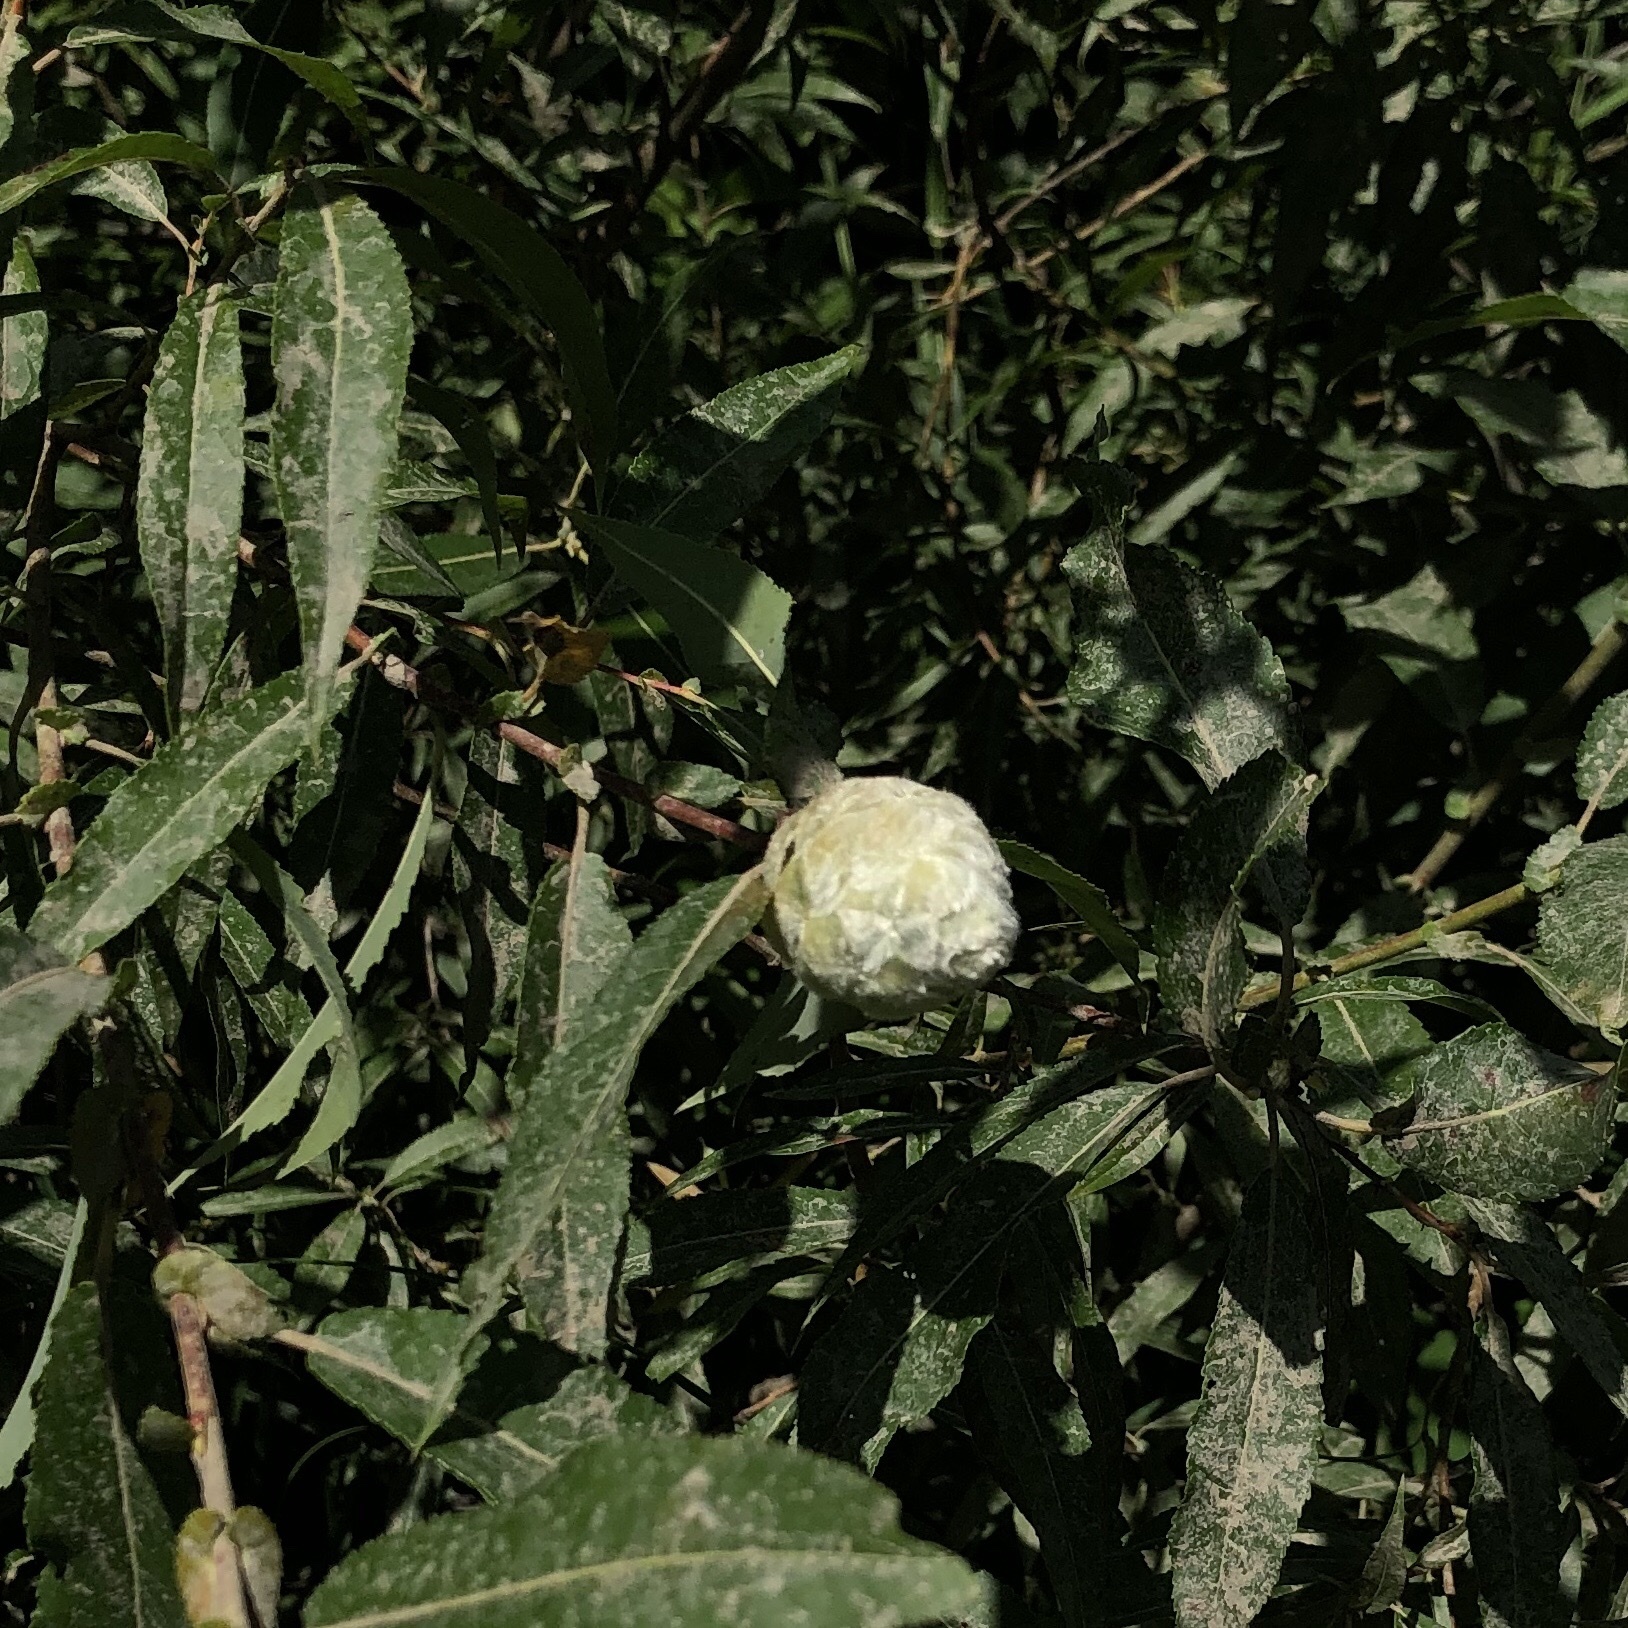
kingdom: Animalia
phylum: Arthropoda
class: Insecta
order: Diptera
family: Cecidomyiidae
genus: Rabdophaga
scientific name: Rabdophaga strobiloides
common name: Willow pinecone gall midge
